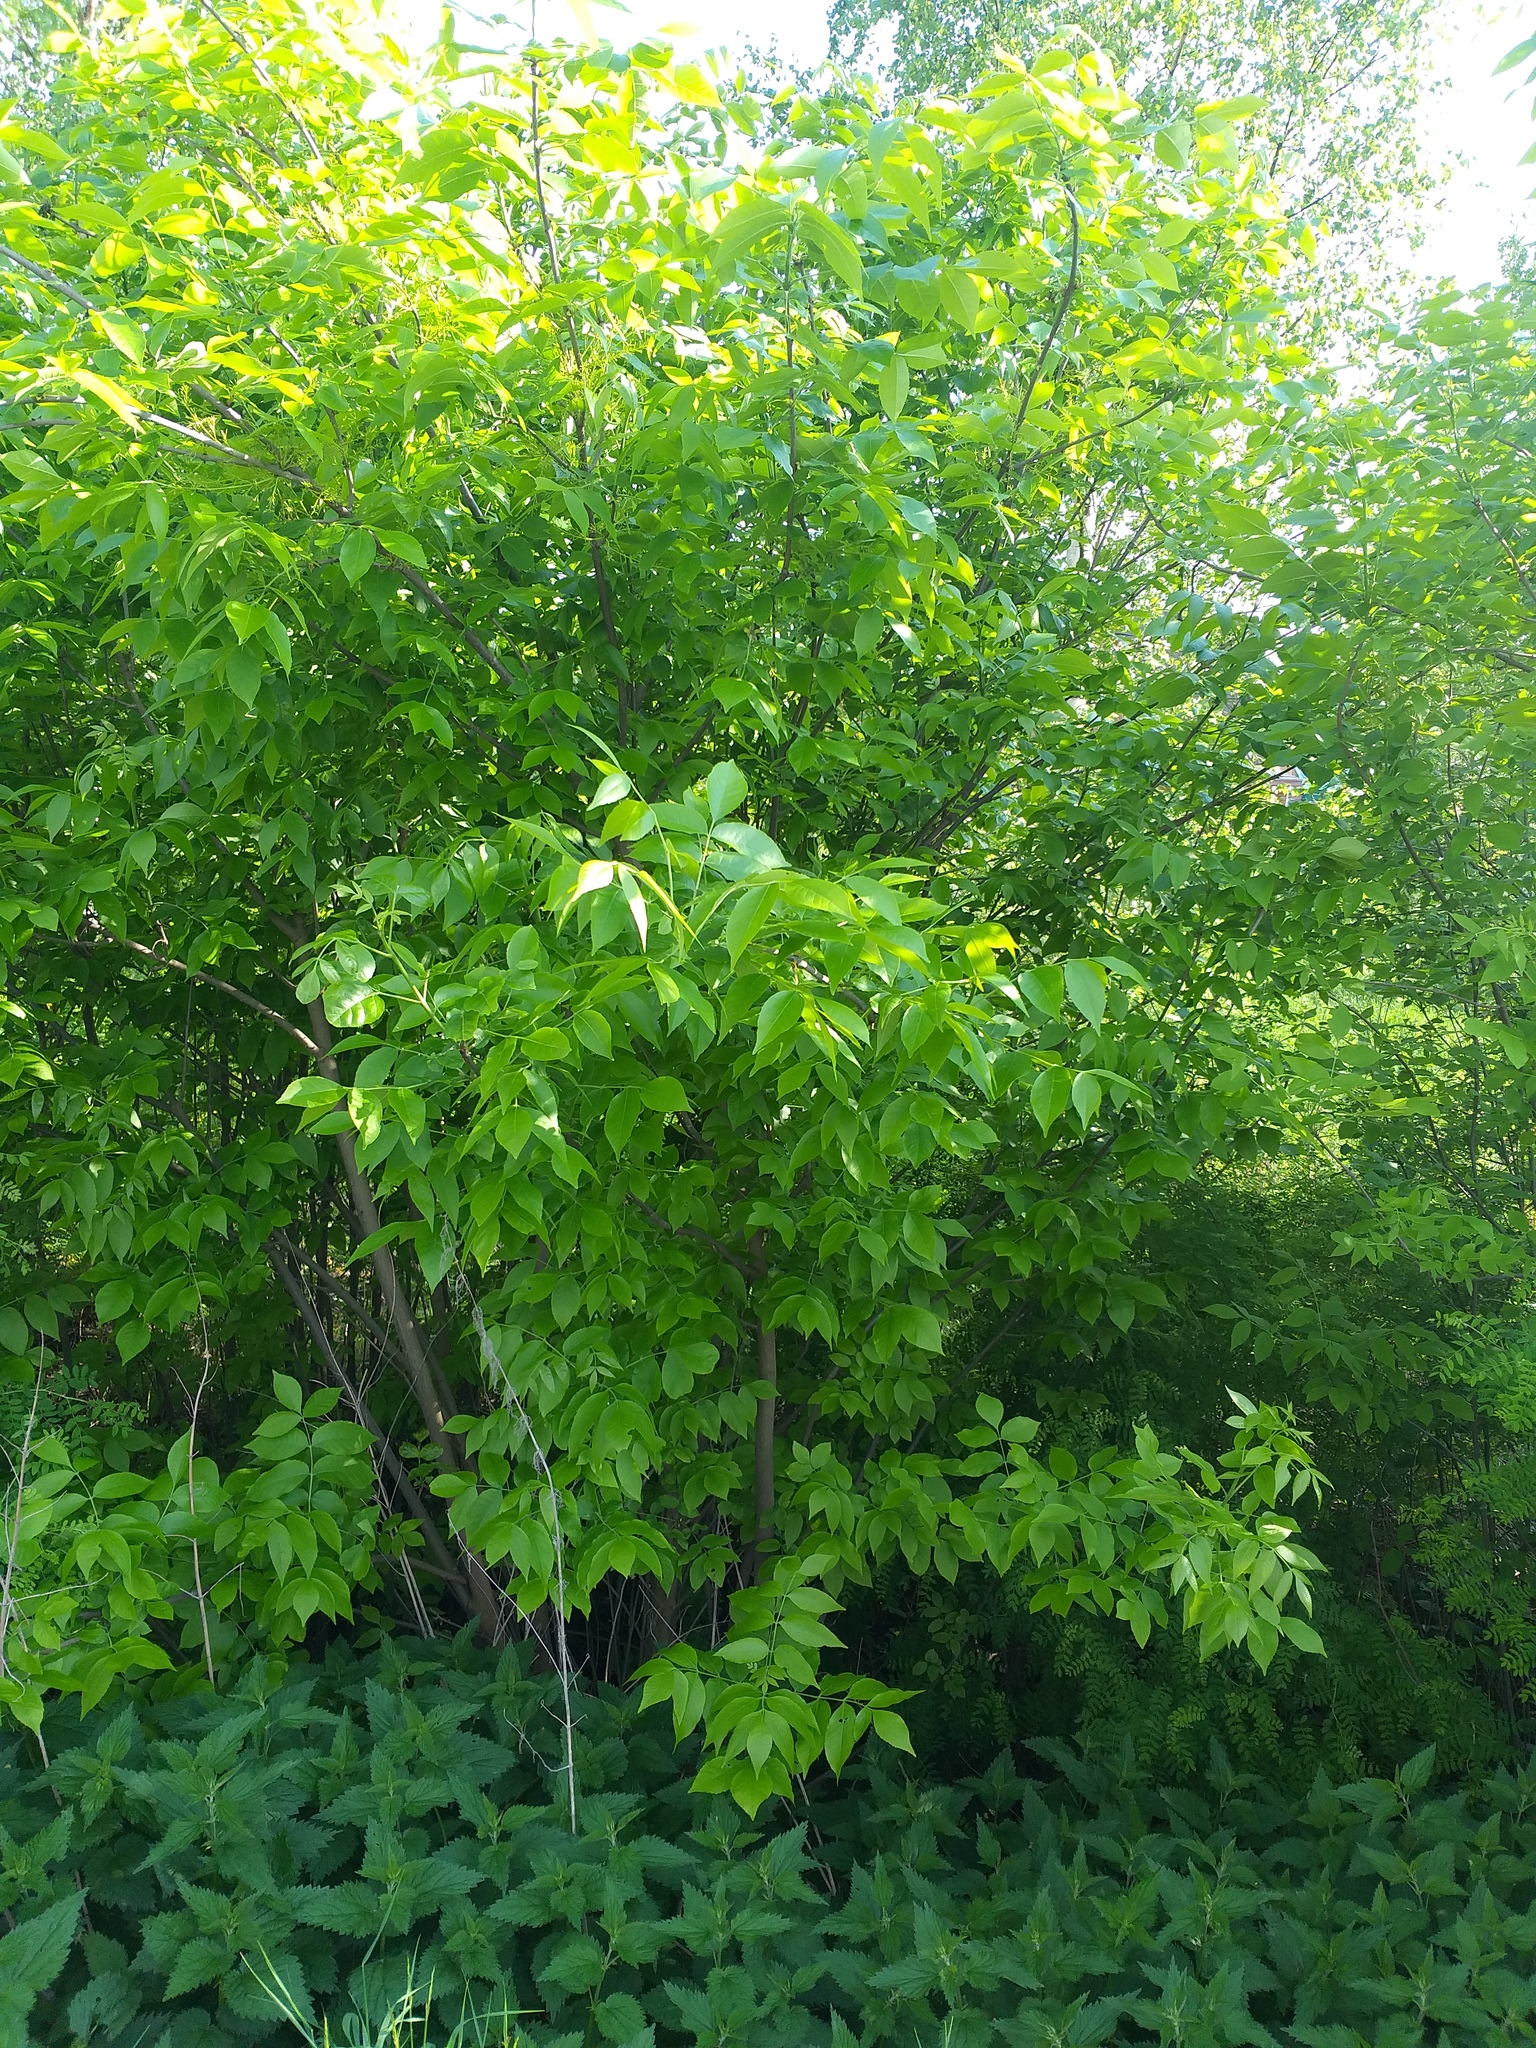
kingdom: Plantae
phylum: Tracheophyta
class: Magnoliopsida
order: Lamiales
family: Oleaceae
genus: Fraxinus
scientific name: Fraxinus pennsylvanica
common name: Green ash
